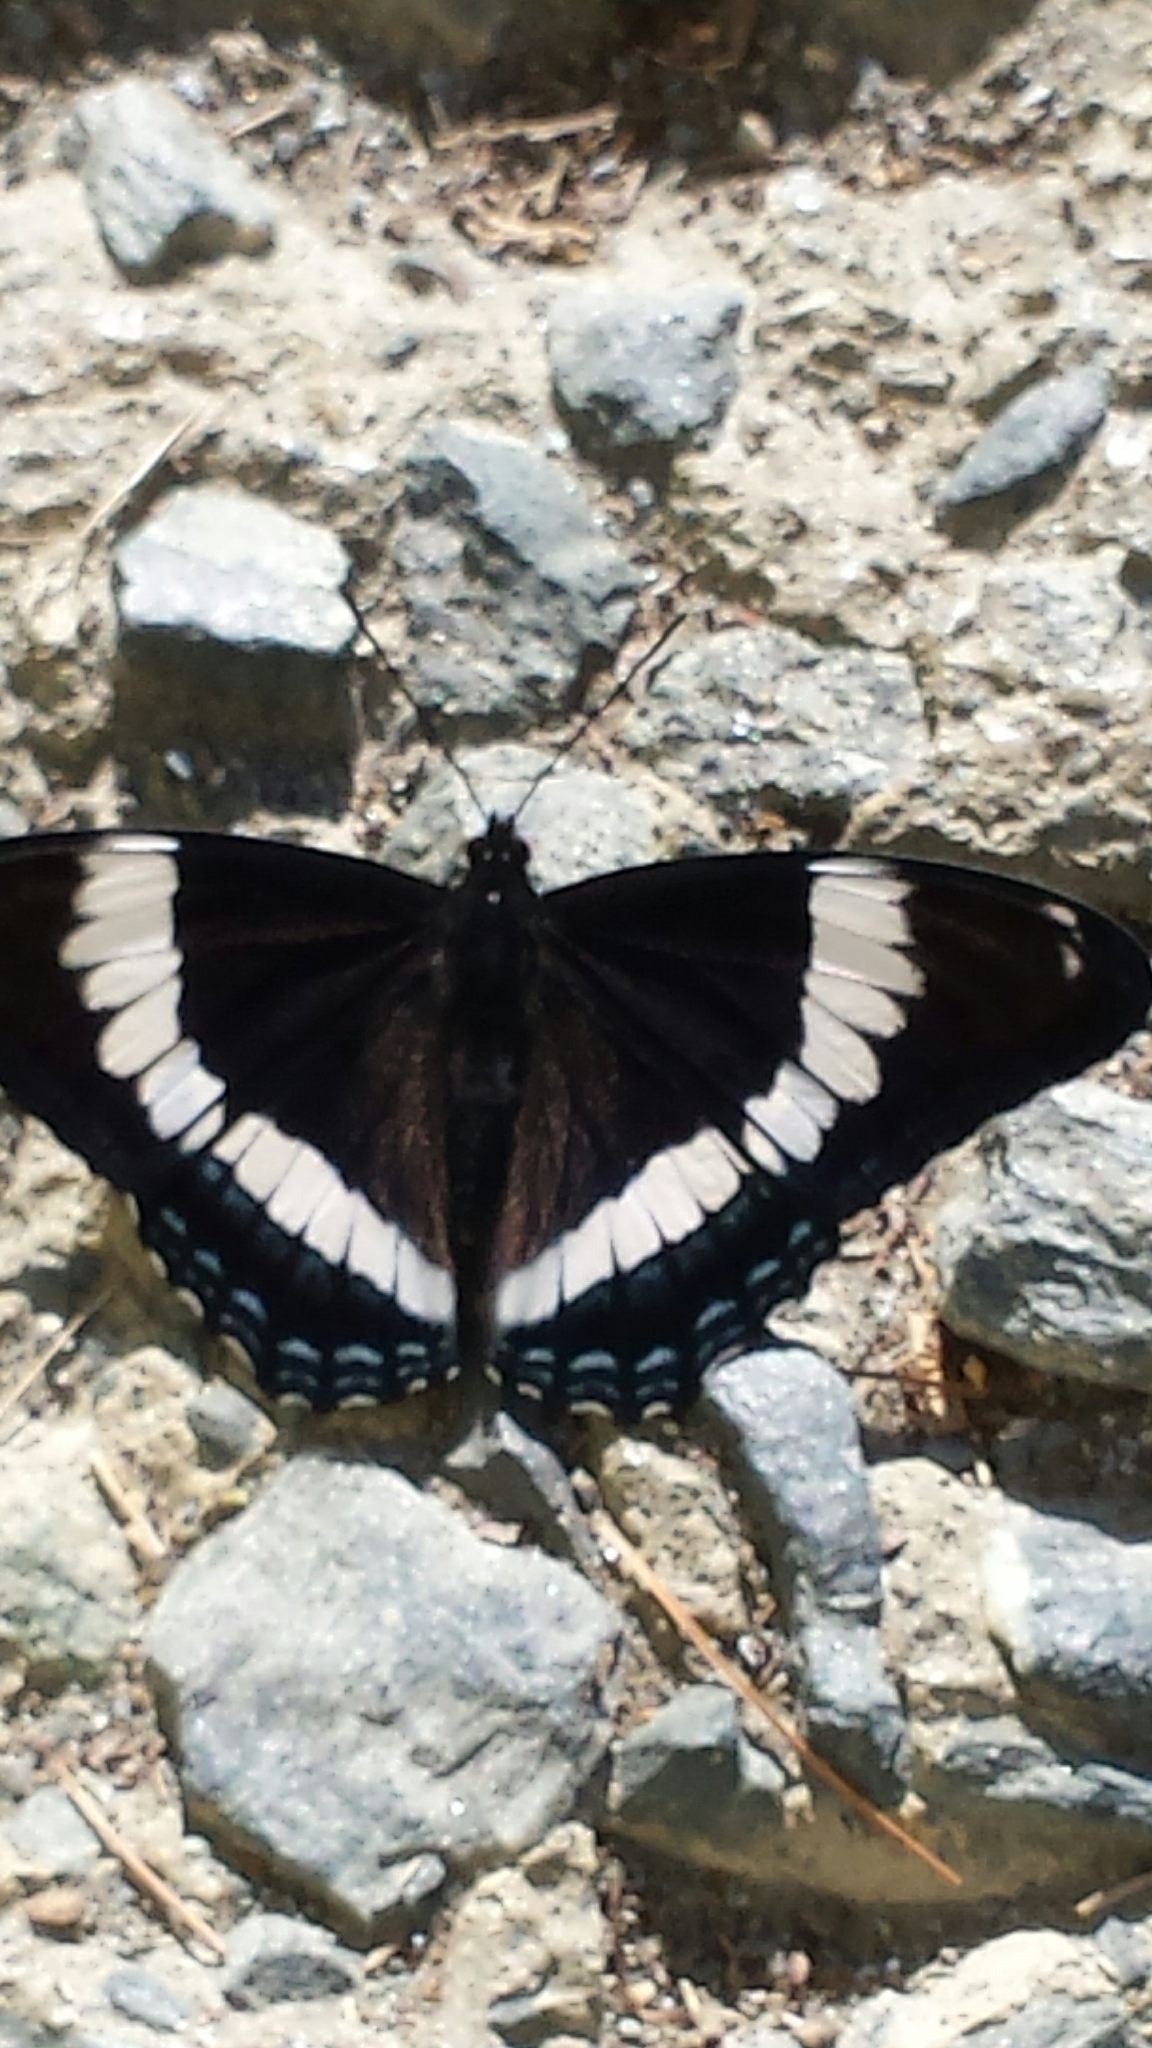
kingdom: Animalia
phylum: Arthropoda
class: Insecta
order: Lepidoptera
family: Nymphalidae
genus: Limenitis
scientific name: Limenitis arthemis
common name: Red-spotted admiral
